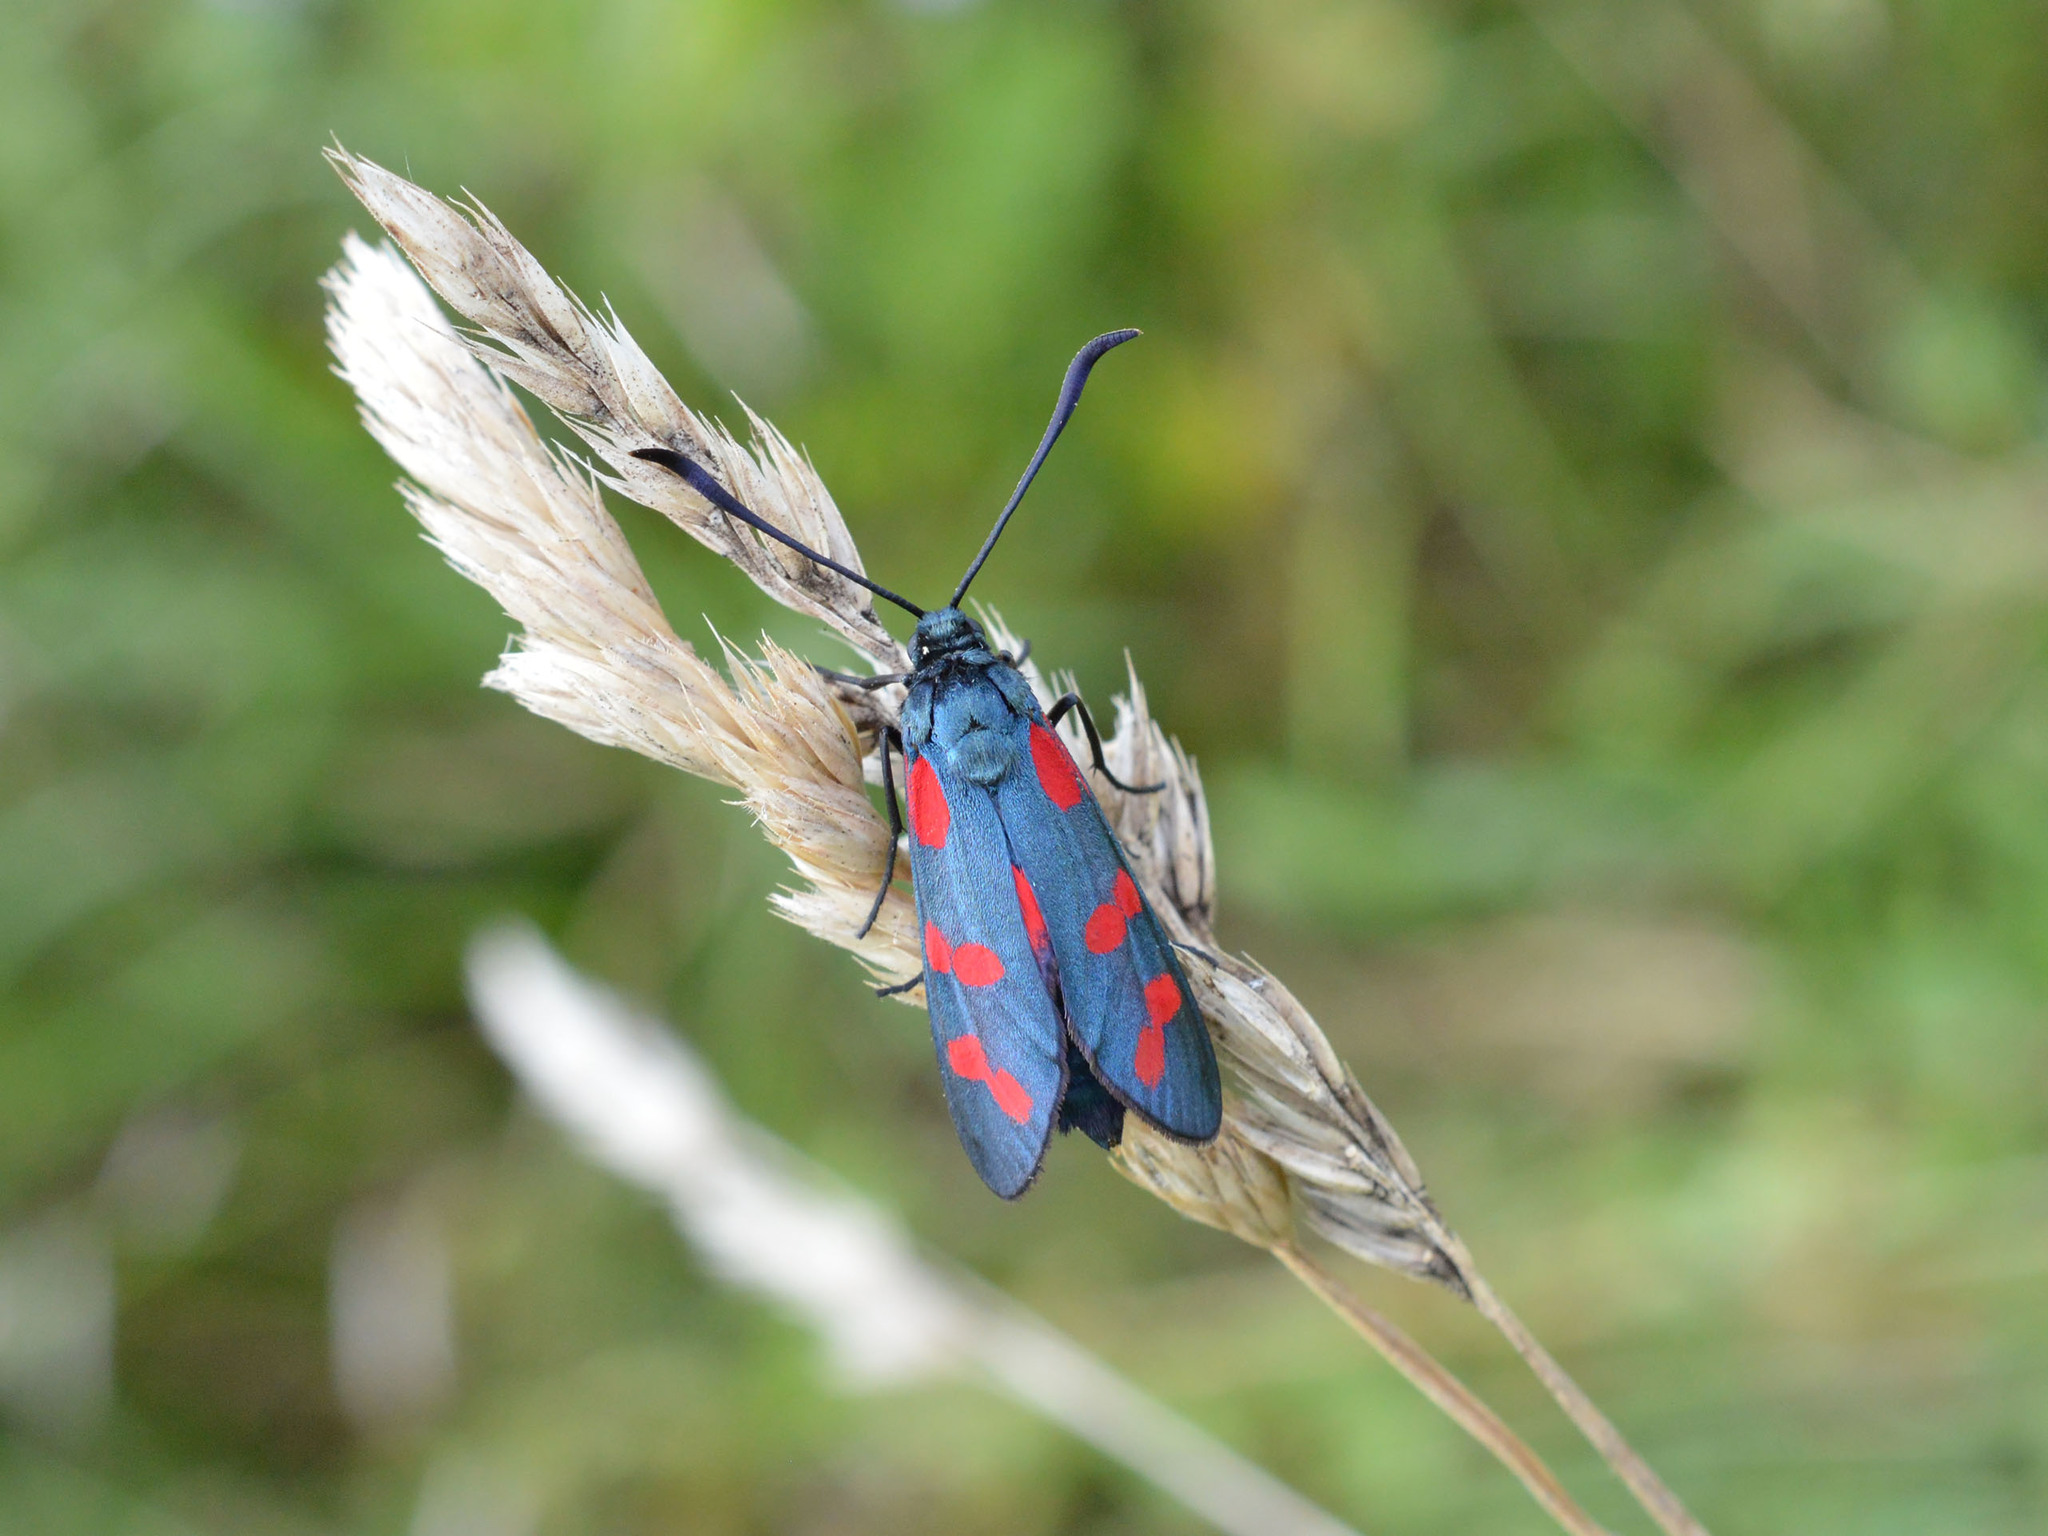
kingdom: Animalia
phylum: Arthropoda
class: Insecta
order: Lepidoptera
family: Zygaenidae
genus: Zygaena
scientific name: Zygaena filipendulae
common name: Six-spot burnet
